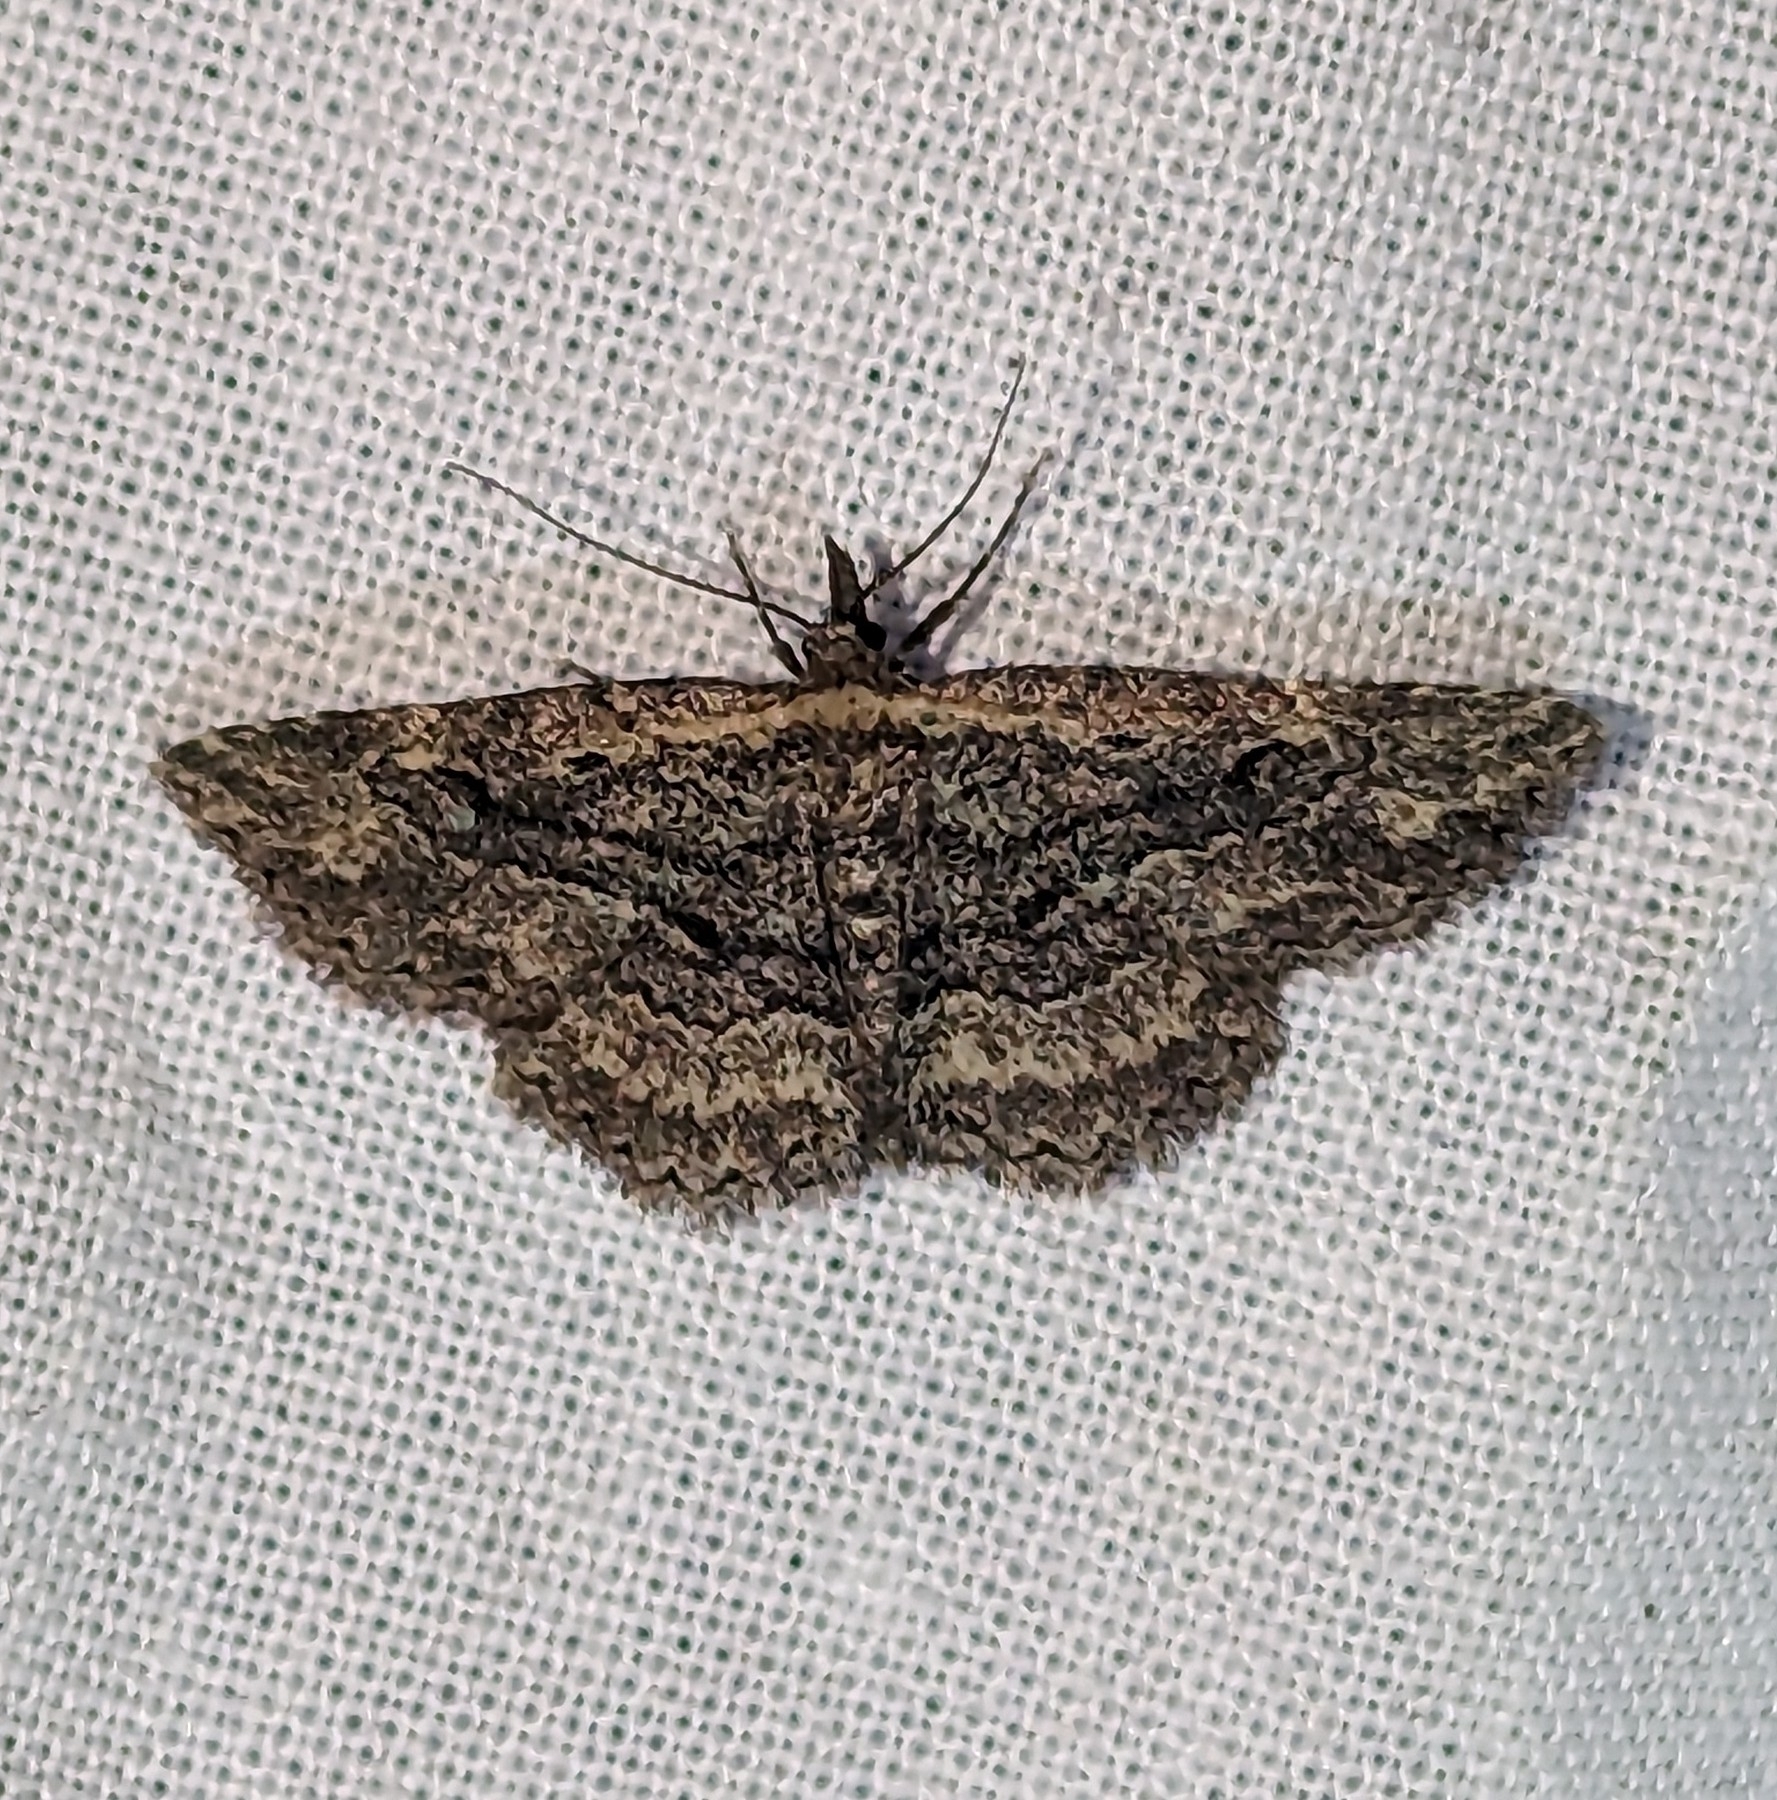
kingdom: Animalia
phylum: Arthropoda
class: Insecta
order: Lepidoptera
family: Erebidae
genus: Mycterophora
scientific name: Mycterophora longipalpata
